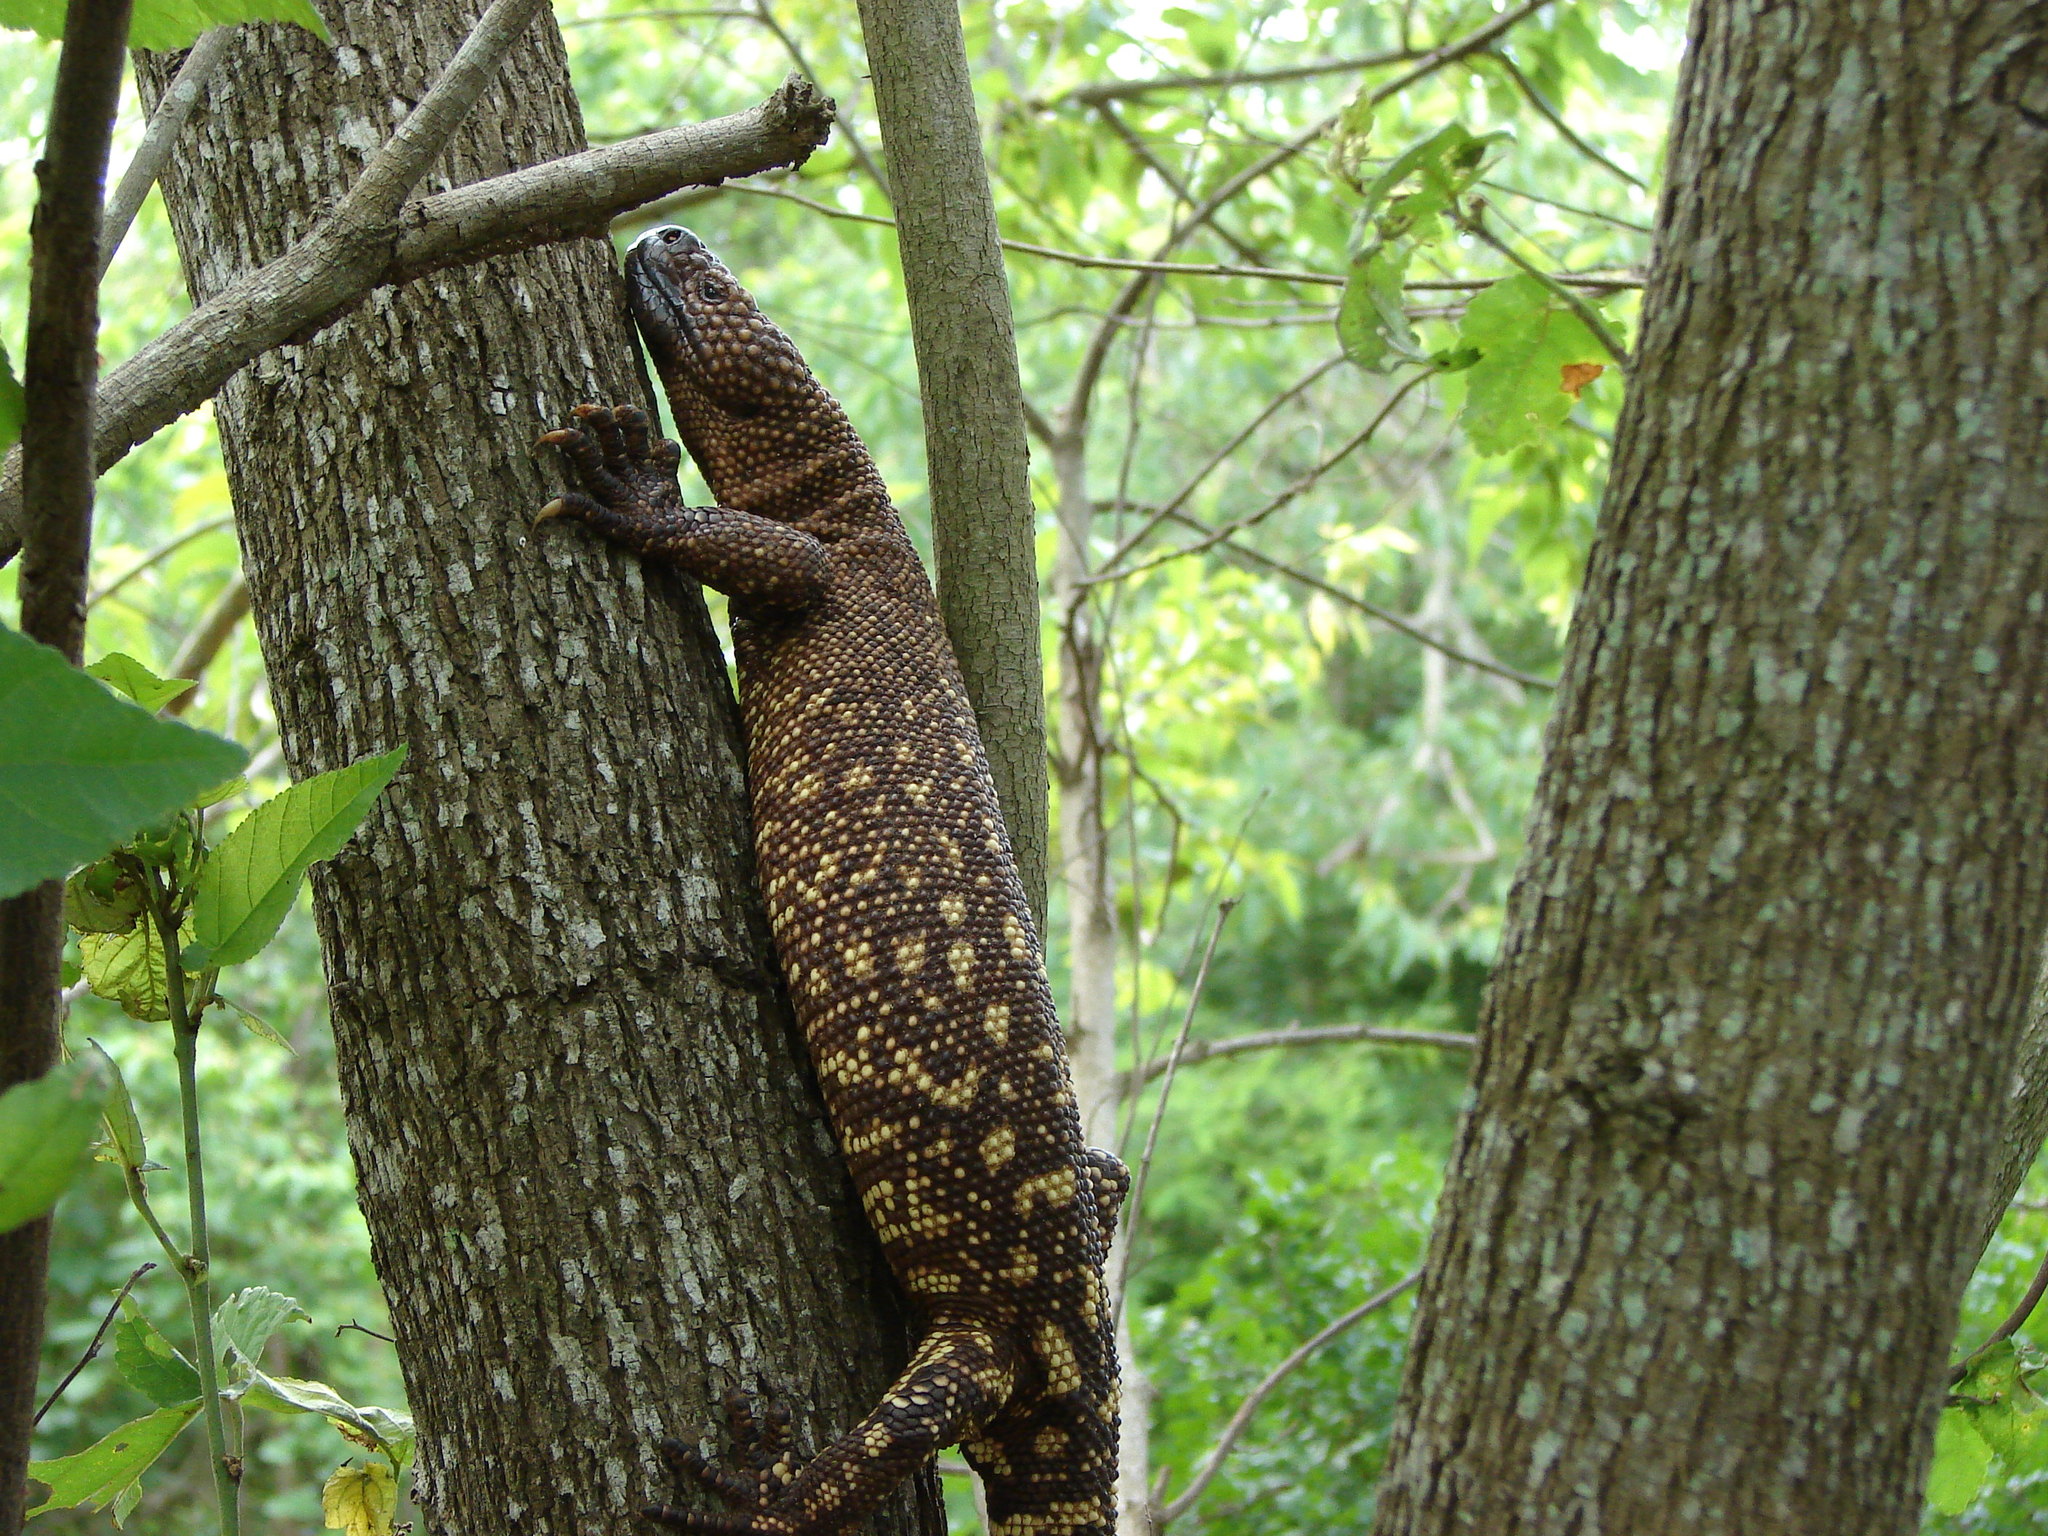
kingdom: Animalia
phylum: Chordata
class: Squamata
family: Helodermatidae
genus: Heloderma
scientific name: Heloderma horridum
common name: Mexican beaded lizard
